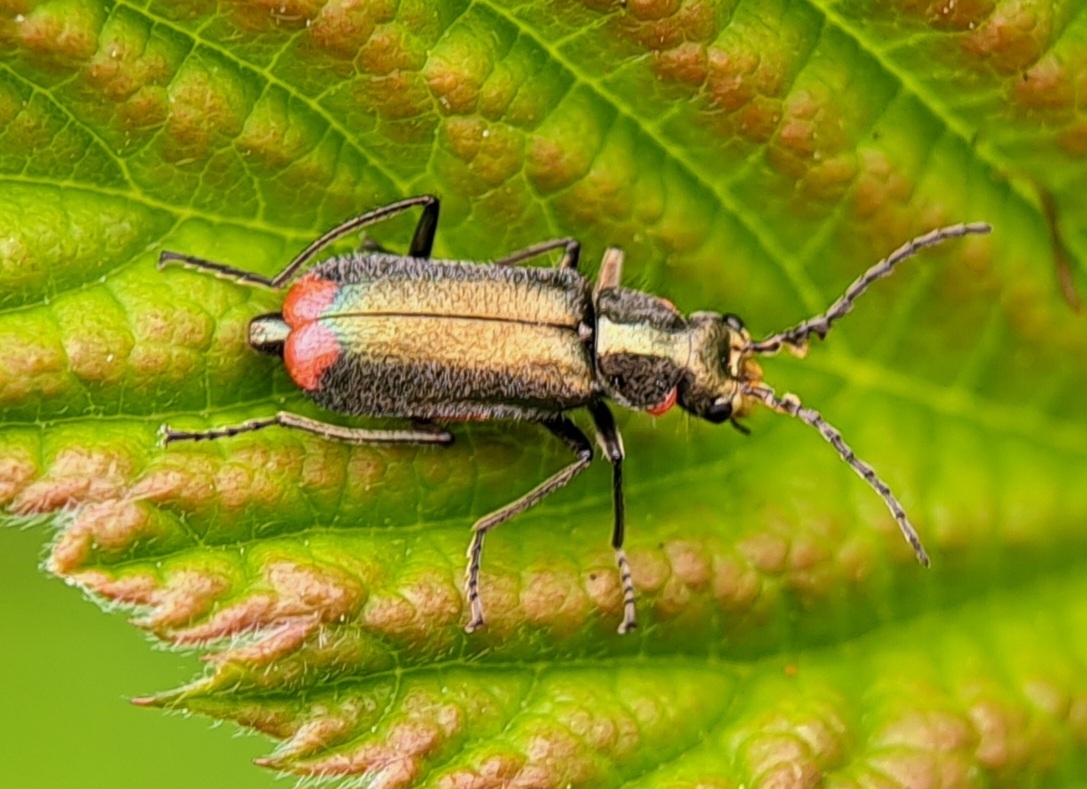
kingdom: Animalia
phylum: Arthropoda
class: Insecta
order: Coleoptera
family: Melyridae
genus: Malachius
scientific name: Malachius bipustulatus
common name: Malachite beetle
